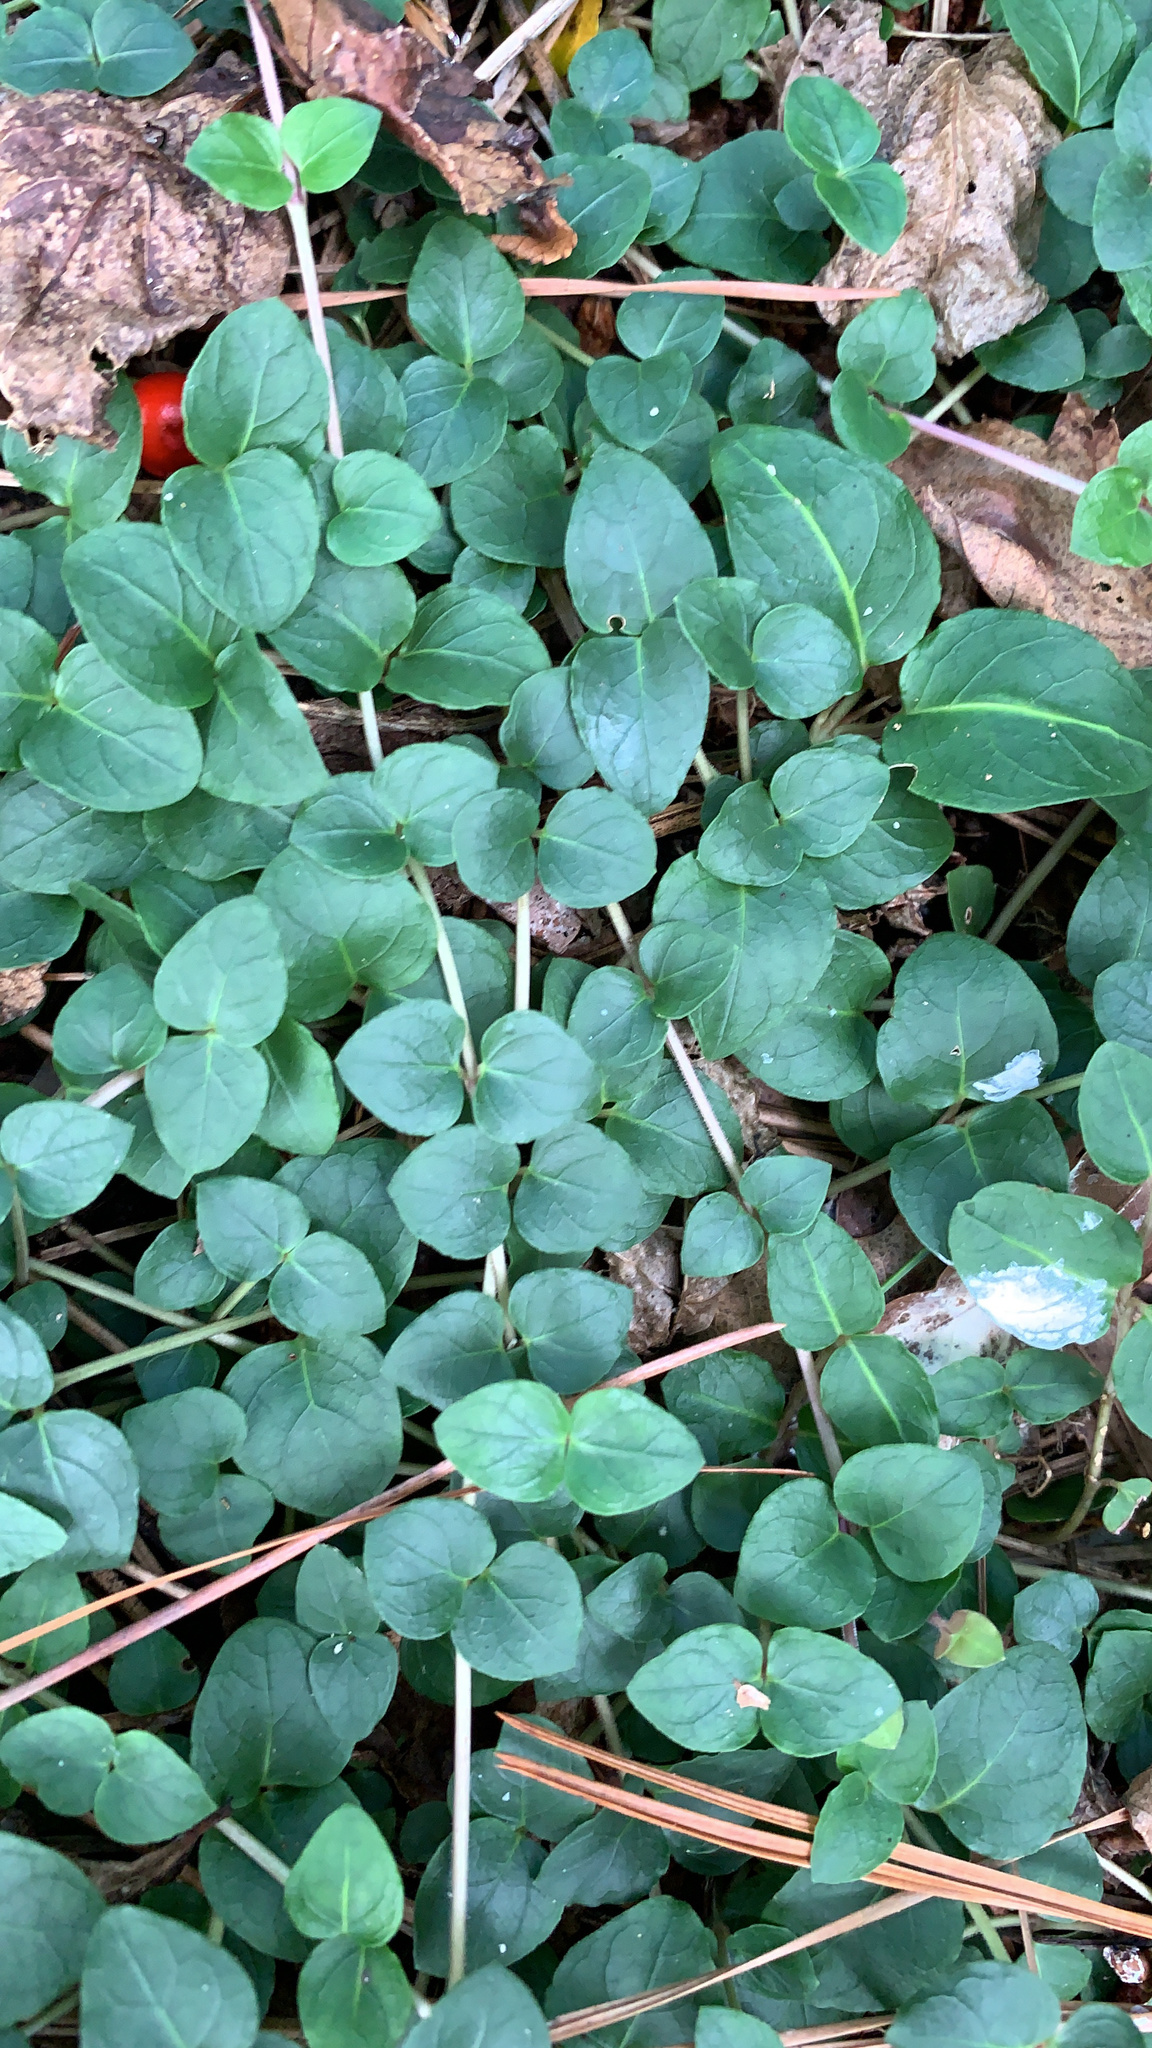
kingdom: Plantae
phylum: Tracheophyta
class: Magnoliopsida
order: Gentianales
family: Rubiaceae
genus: Mitchella
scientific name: Mitchella repens
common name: Partridge-berry
